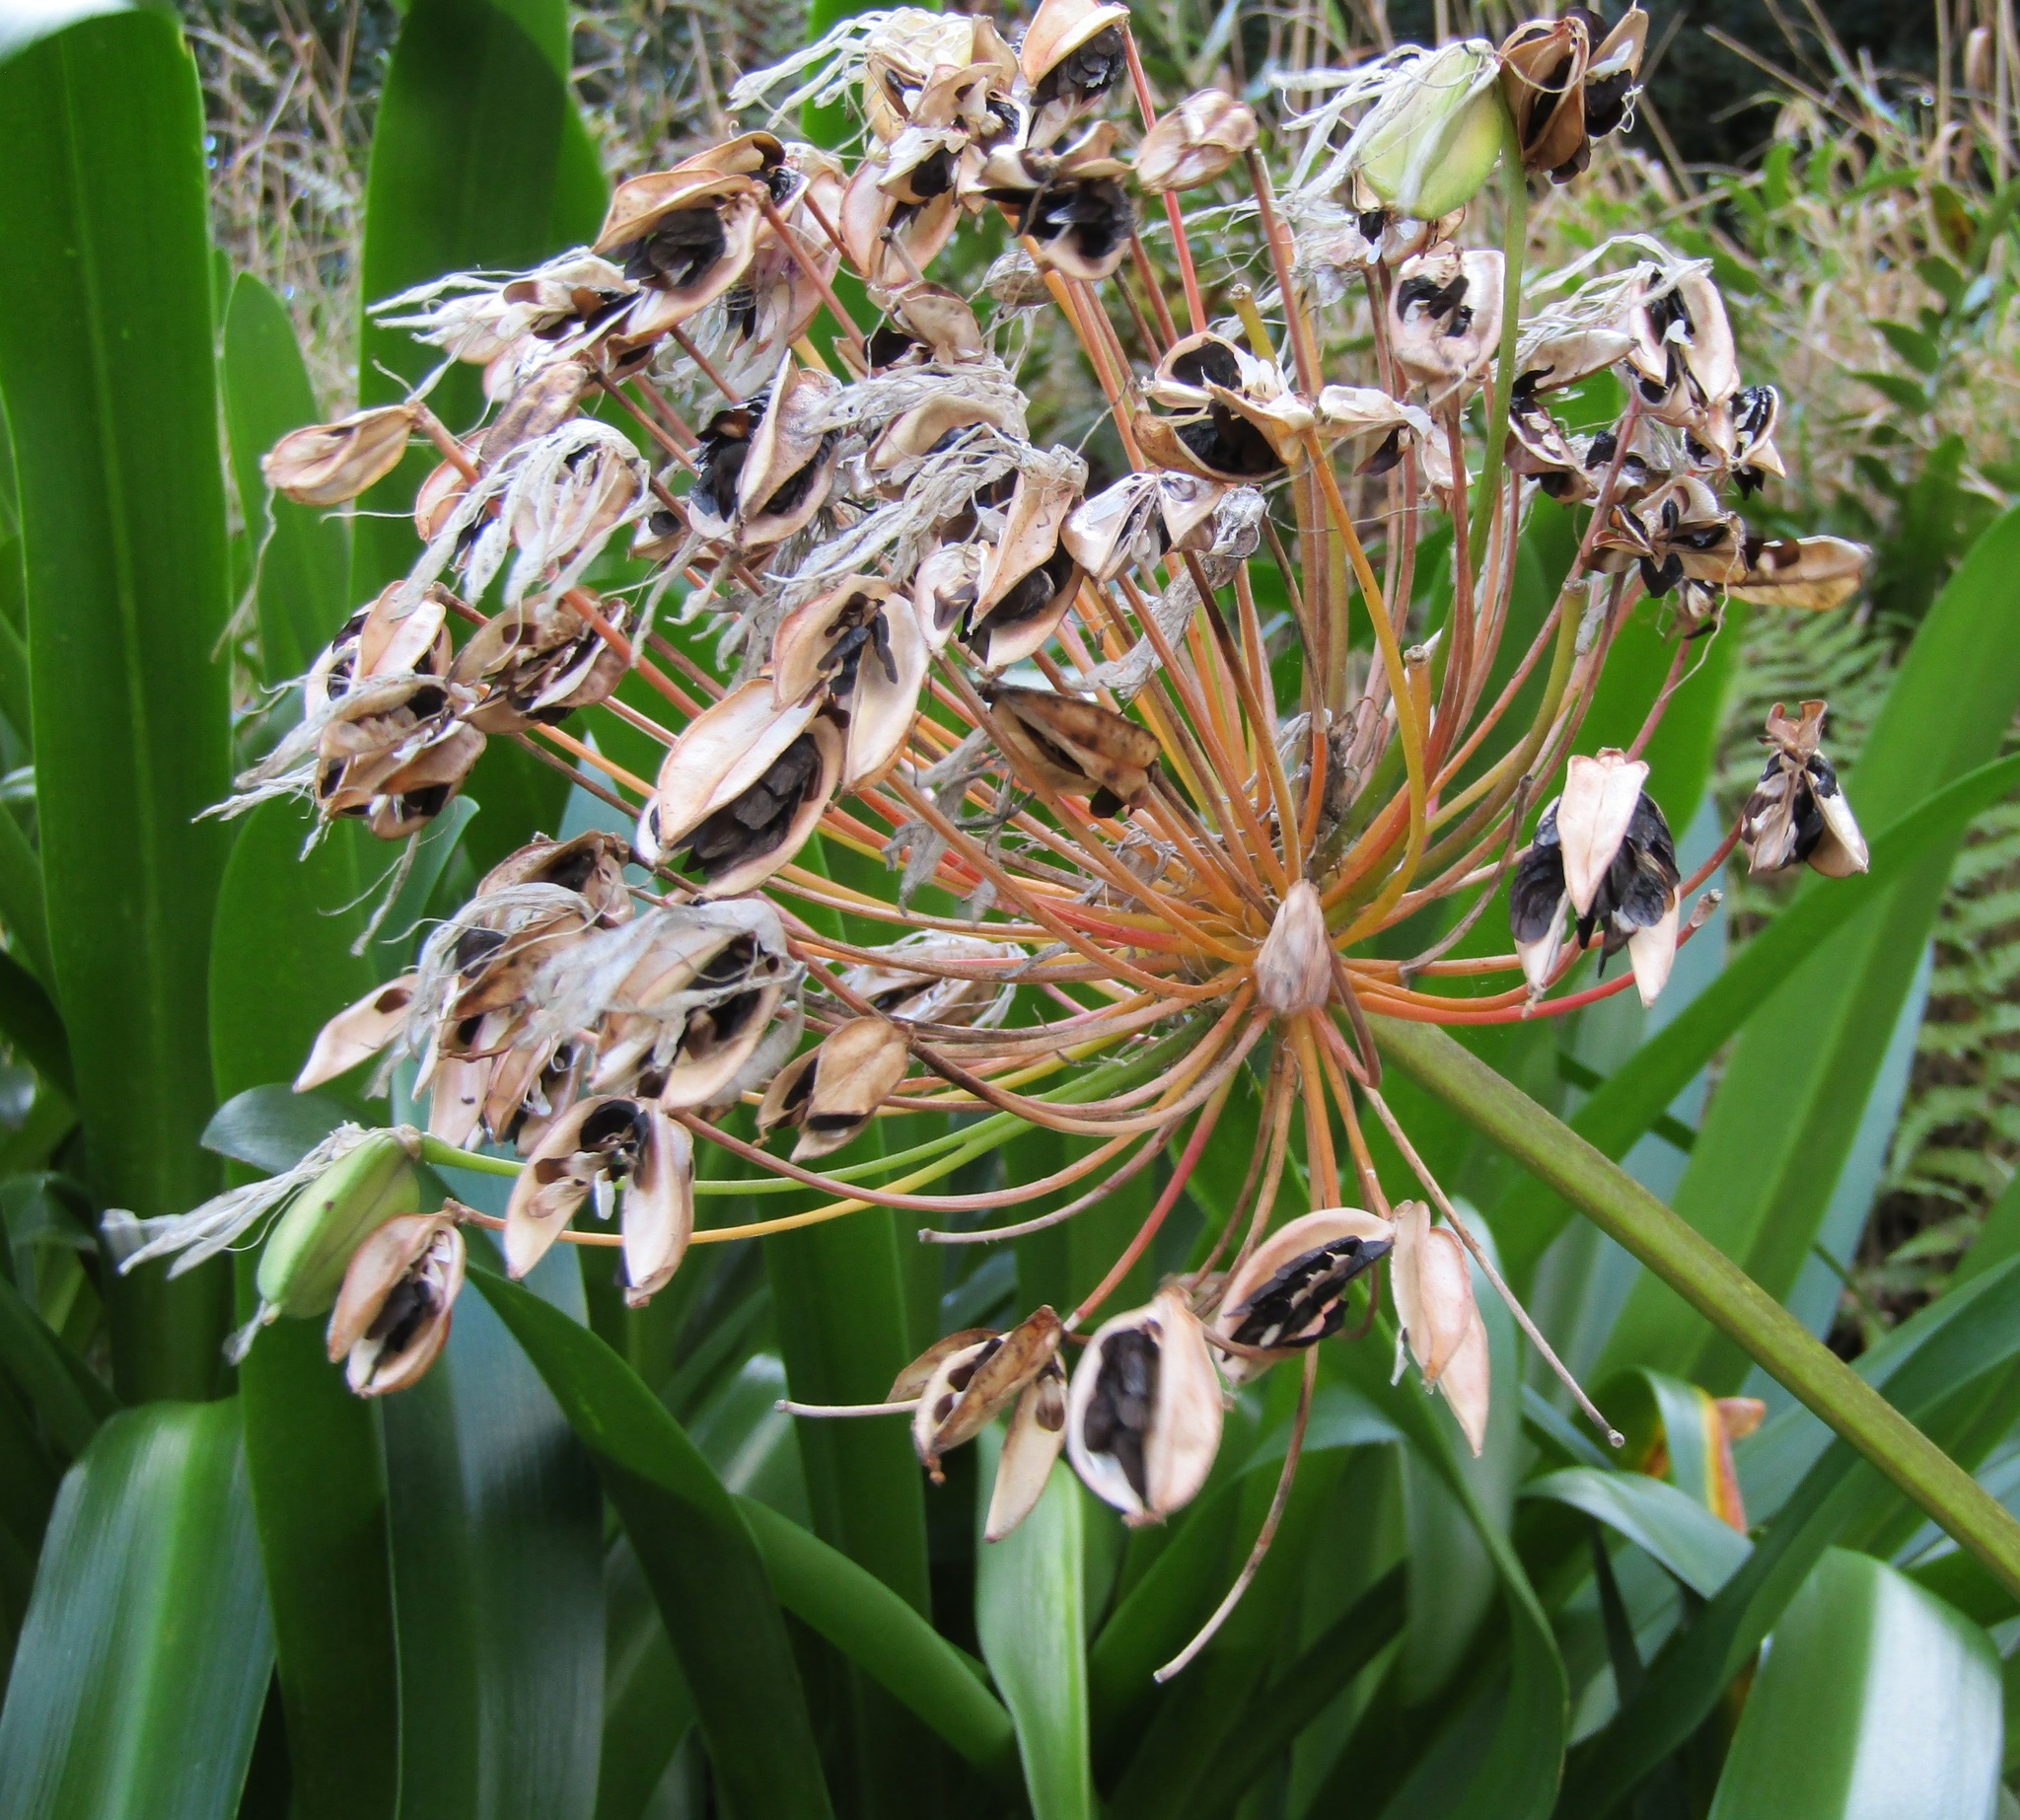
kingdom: Plantae
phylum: Tracheophyta
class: Liliopsida
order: Asparagales
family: Amaryllidaceae
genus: Agapanthus
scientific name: Agapanthus praecox
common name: African-lily
